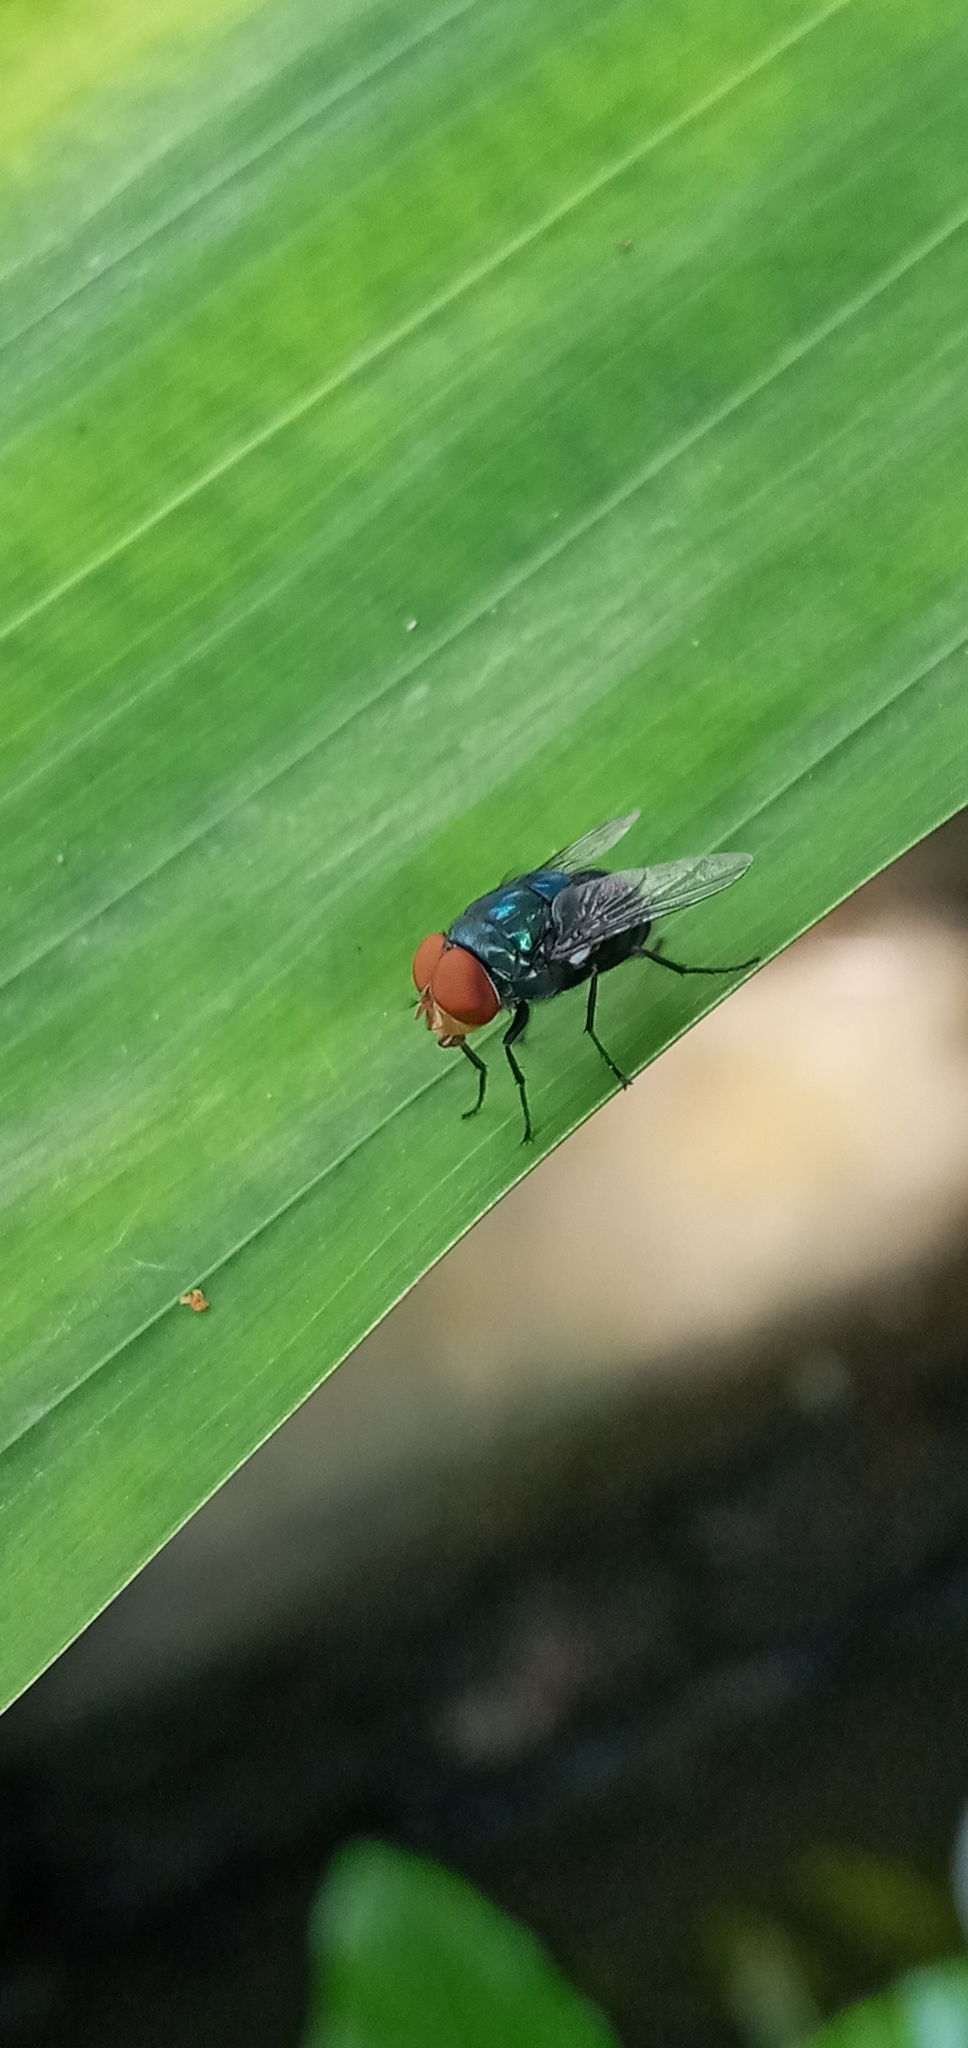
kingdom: Animalia
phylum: Arthropoda
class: Insecta
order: Diptera
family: Calliphoridae
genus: Chrysomya
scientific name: Chrysomya megacephala
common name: Blow fly
